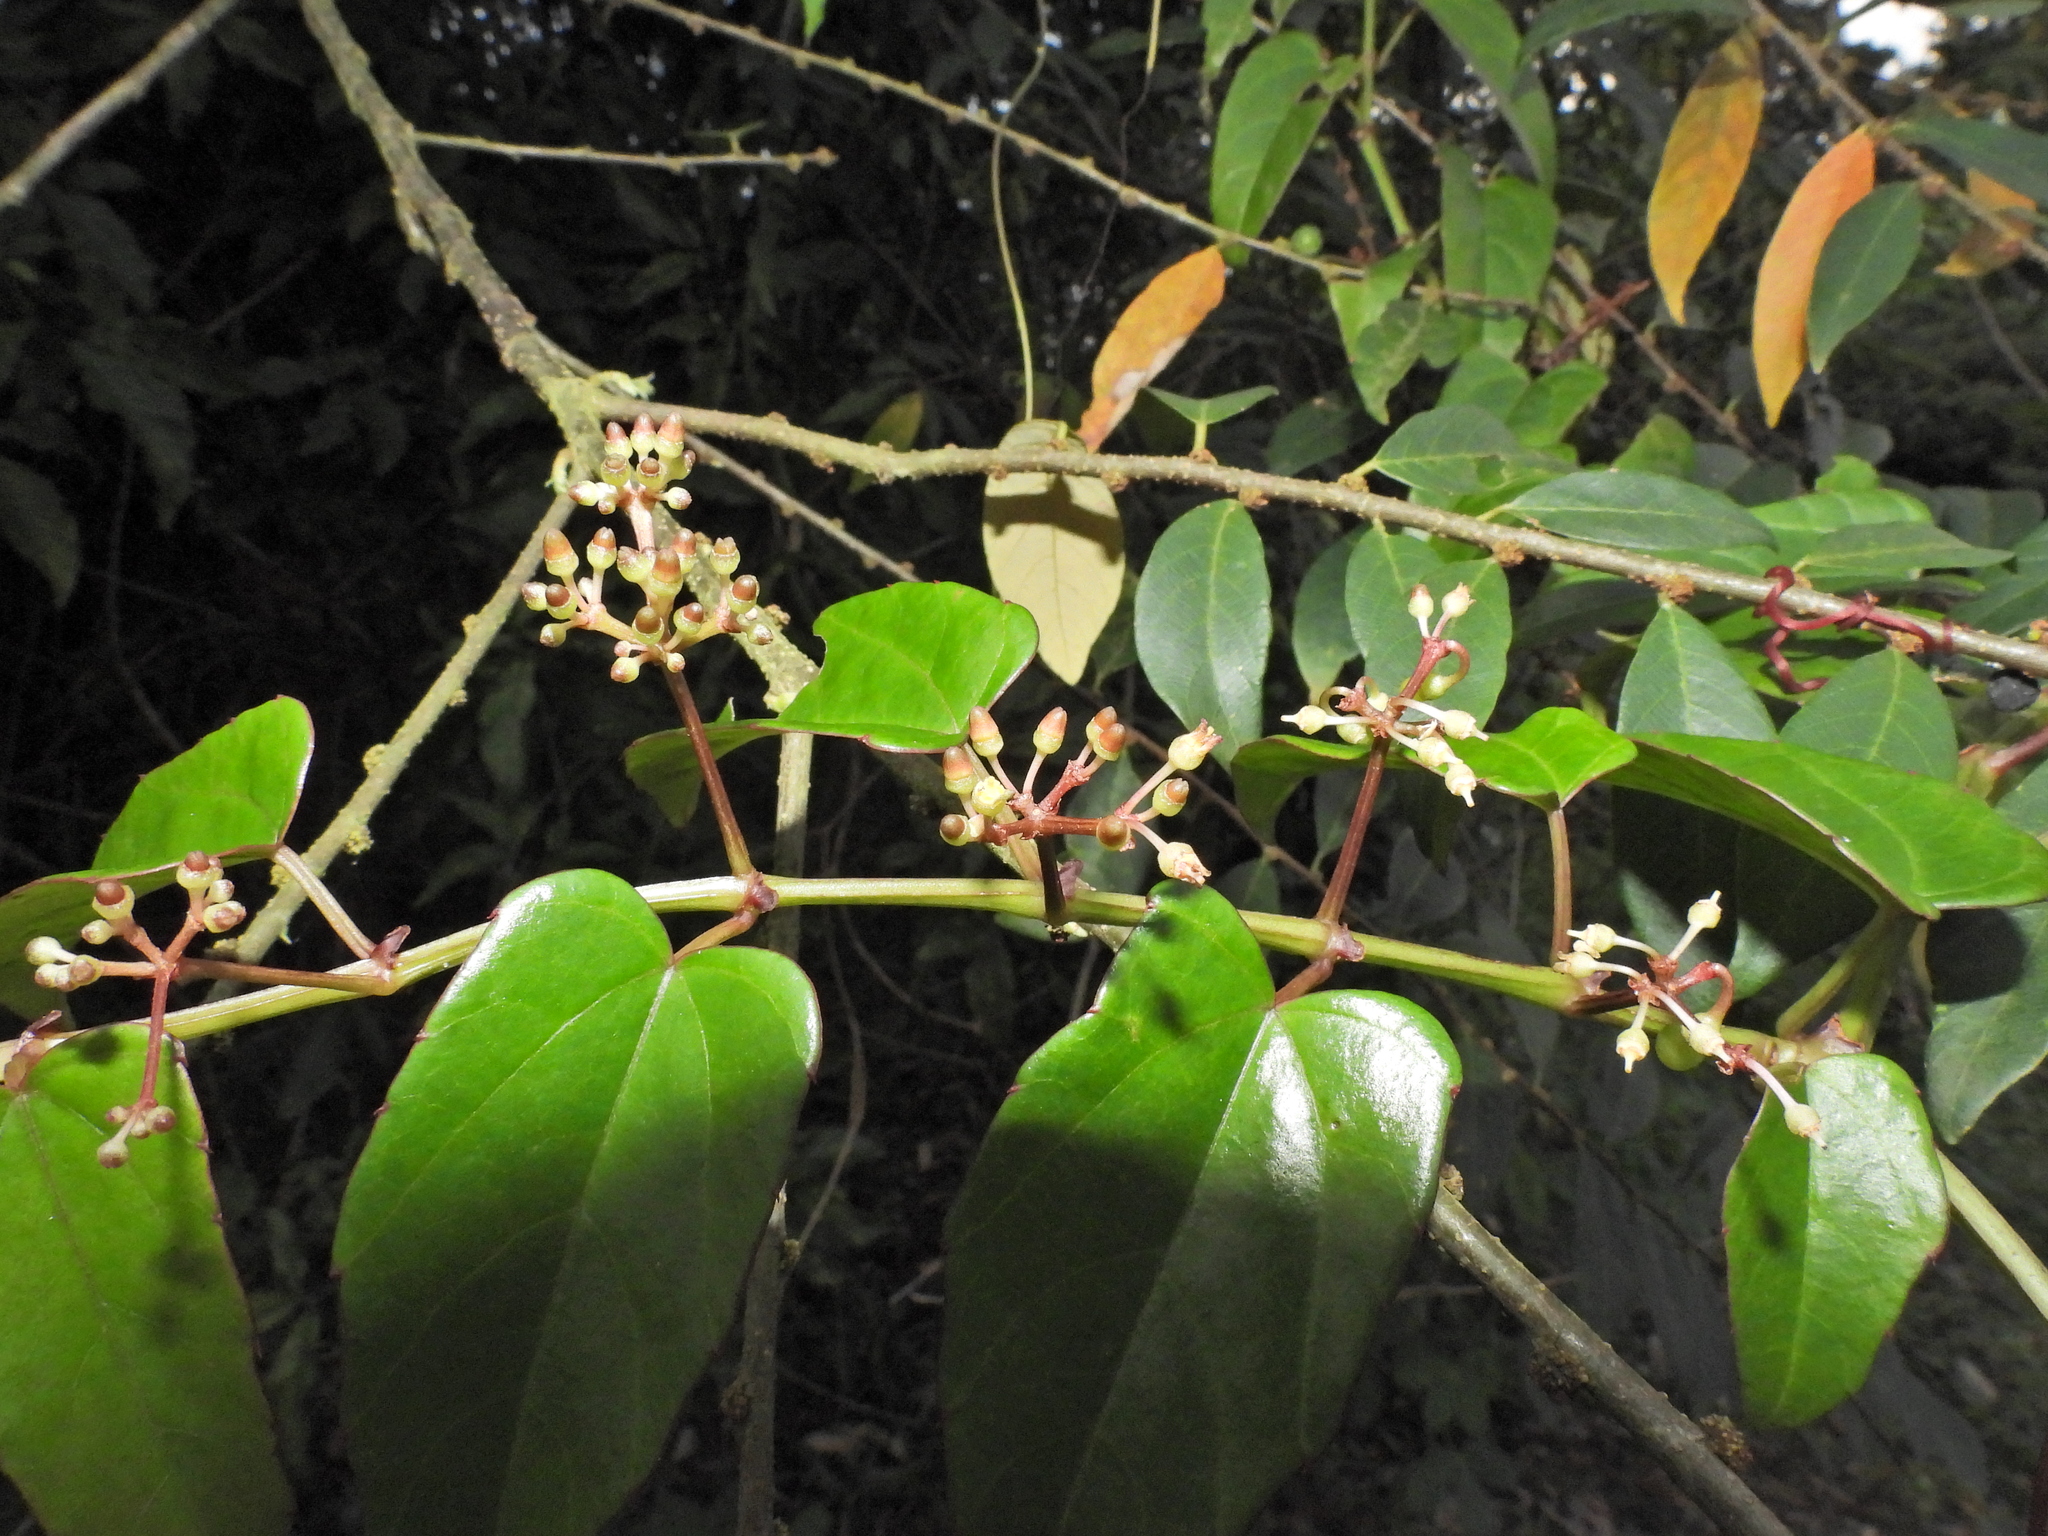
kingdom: Plantae
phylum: Tracheophyta
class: Magnoliopsida
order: Vitales
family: Vitaceae
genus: Cissus
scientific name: Cissus hastata
